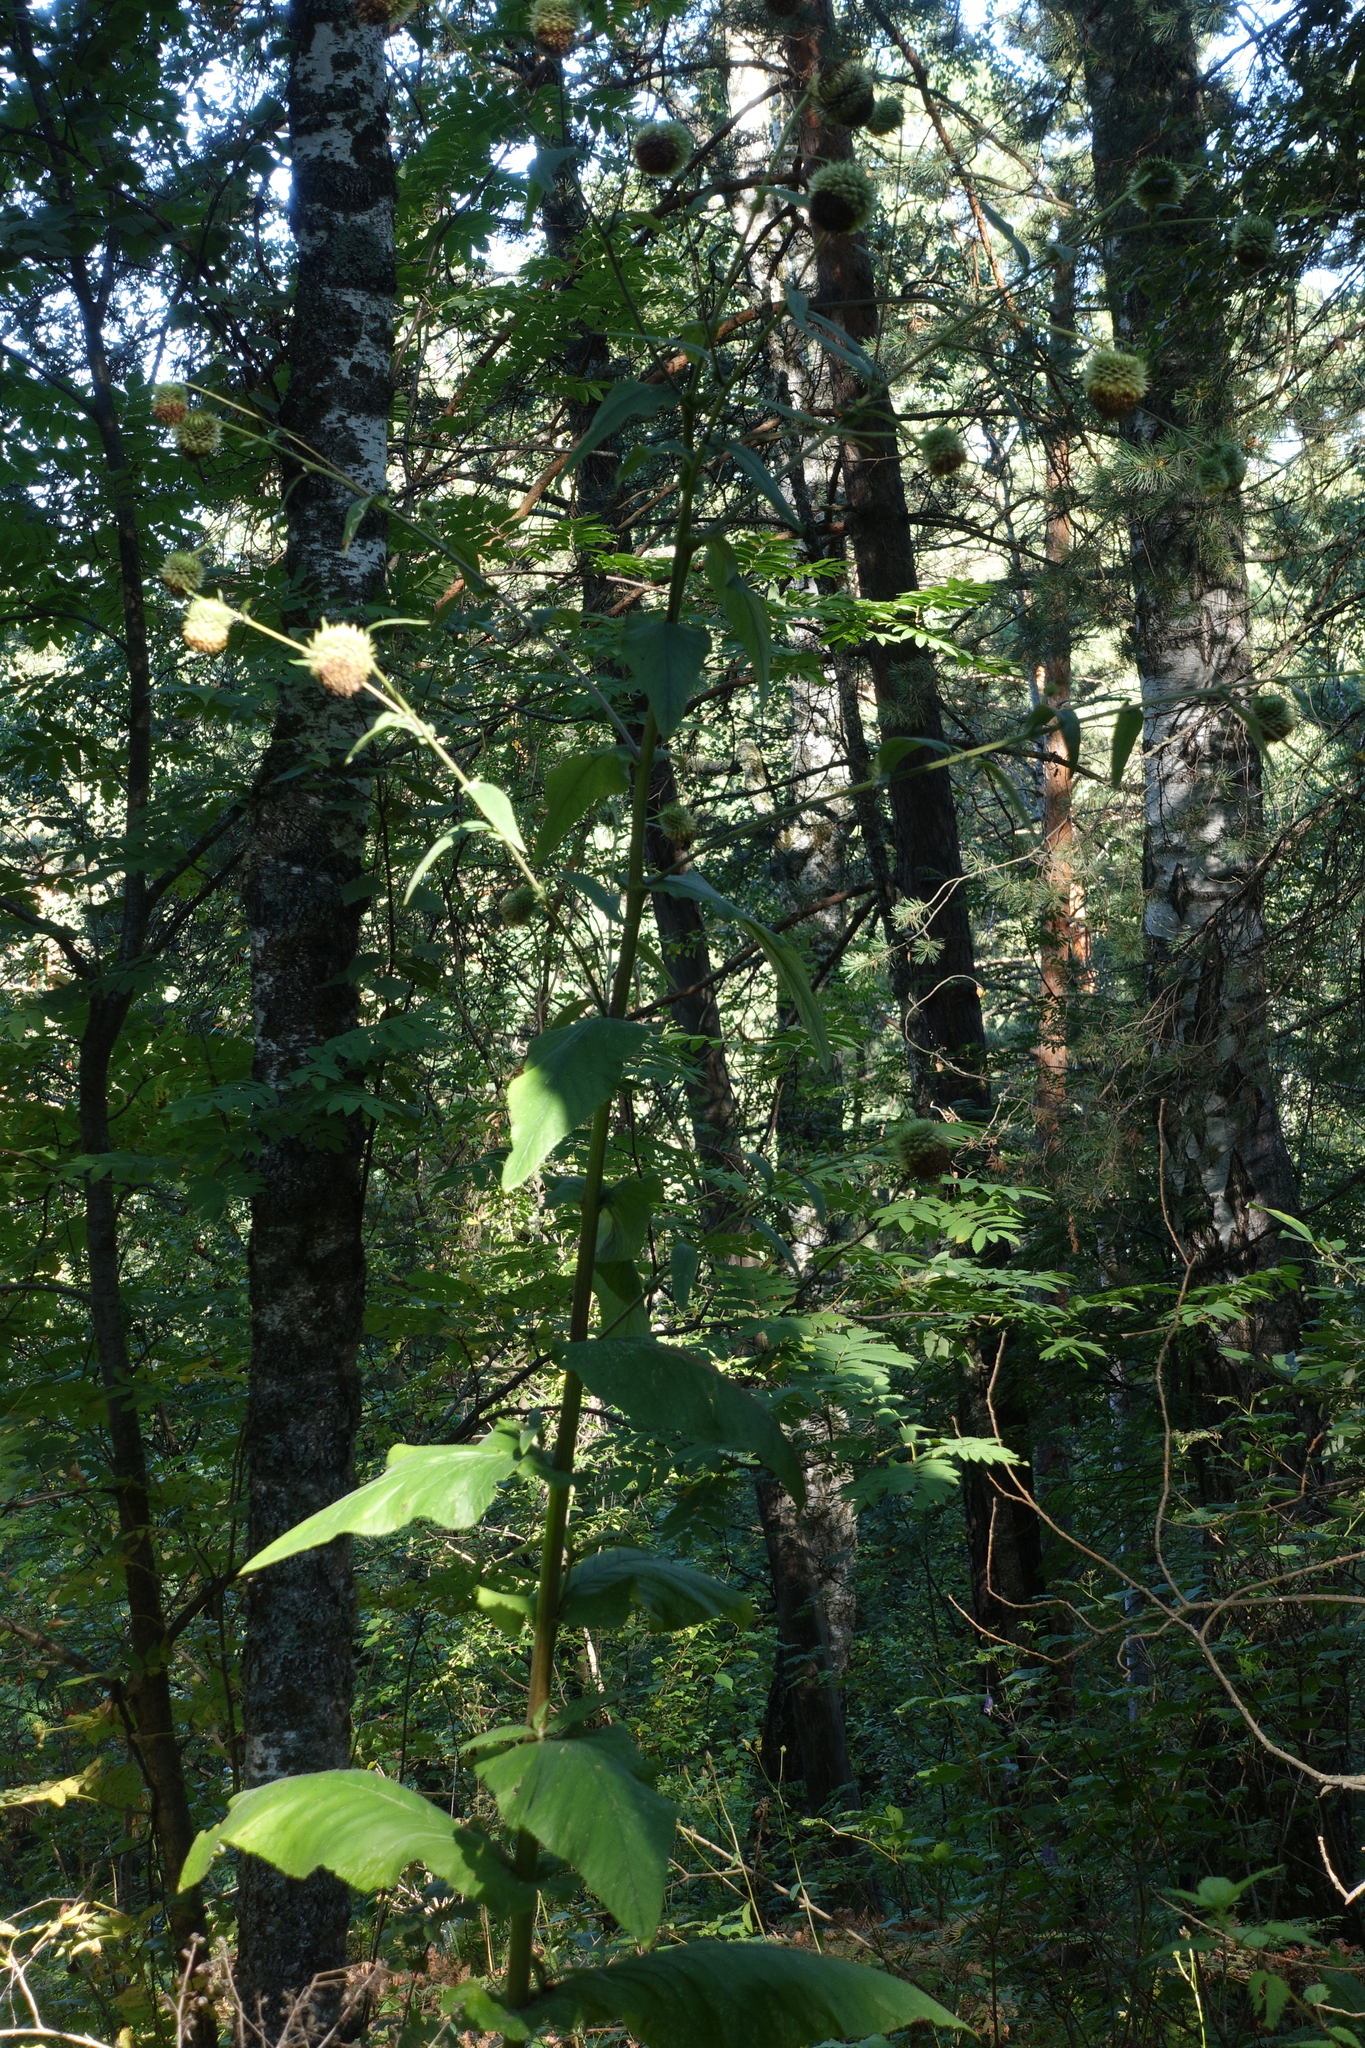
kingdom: Plantae
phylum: Tracheophyta
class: Magnoliopsida
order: Asterales
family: Asteraceae
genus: Alfredia
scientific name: Alfredia cernua
